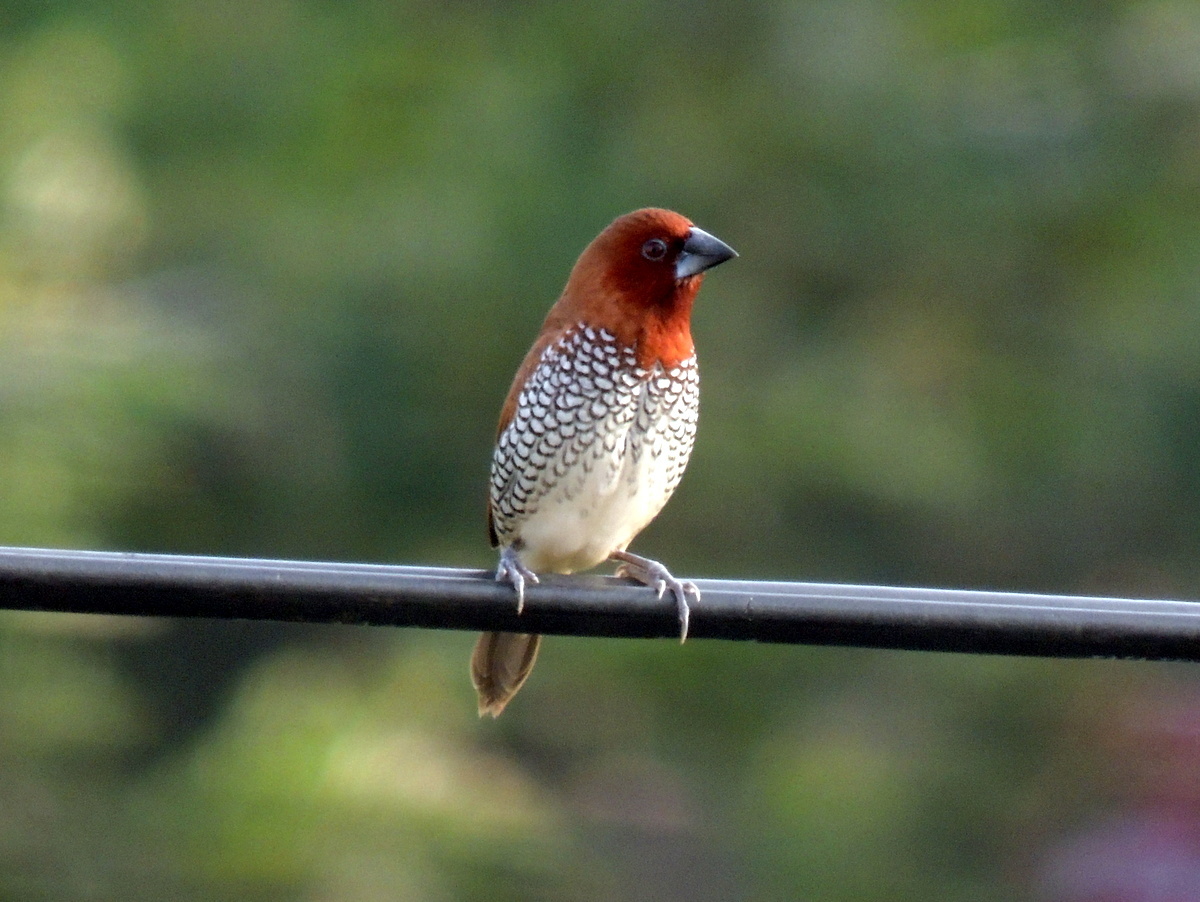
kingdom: Animalia
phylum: Chordata
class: Aves
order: Passeriformes
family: Estrildidae
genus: Lonchura
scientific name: Lonchura punctulata
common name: Scaly-breasted munia
